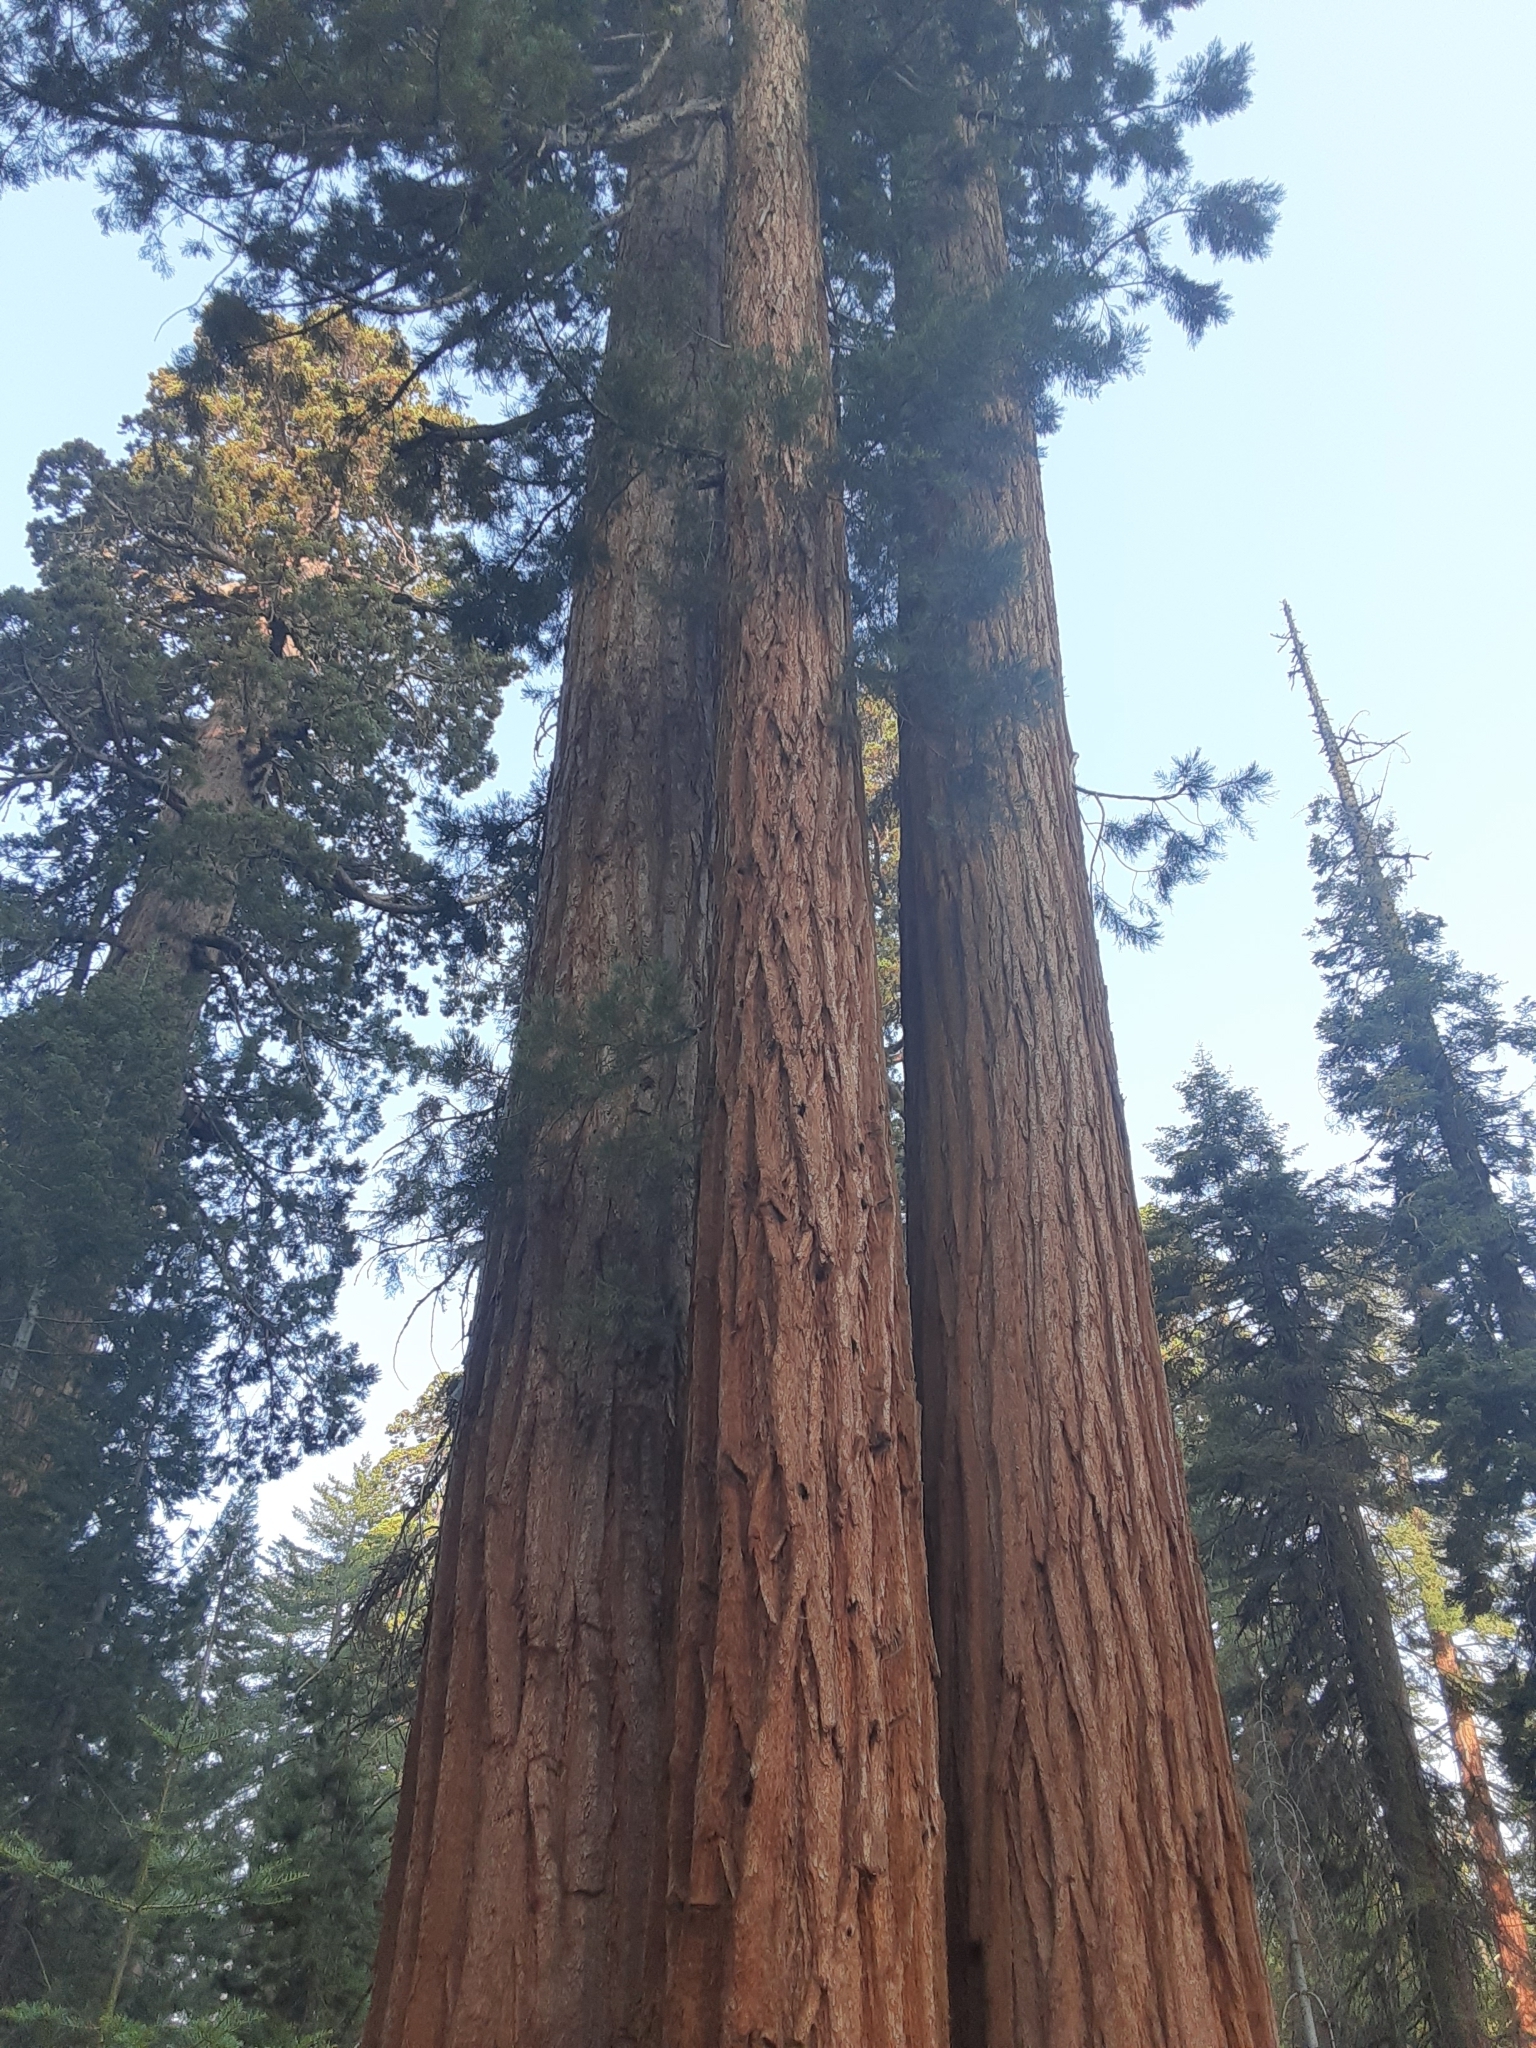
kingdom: Plantae
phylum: Tracheophyta
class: Pinopsida
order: Pinales
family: Cupressaceae
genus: Sequoiadendron
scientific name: Sequoiadendron giganteum
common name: Wellingtonia
